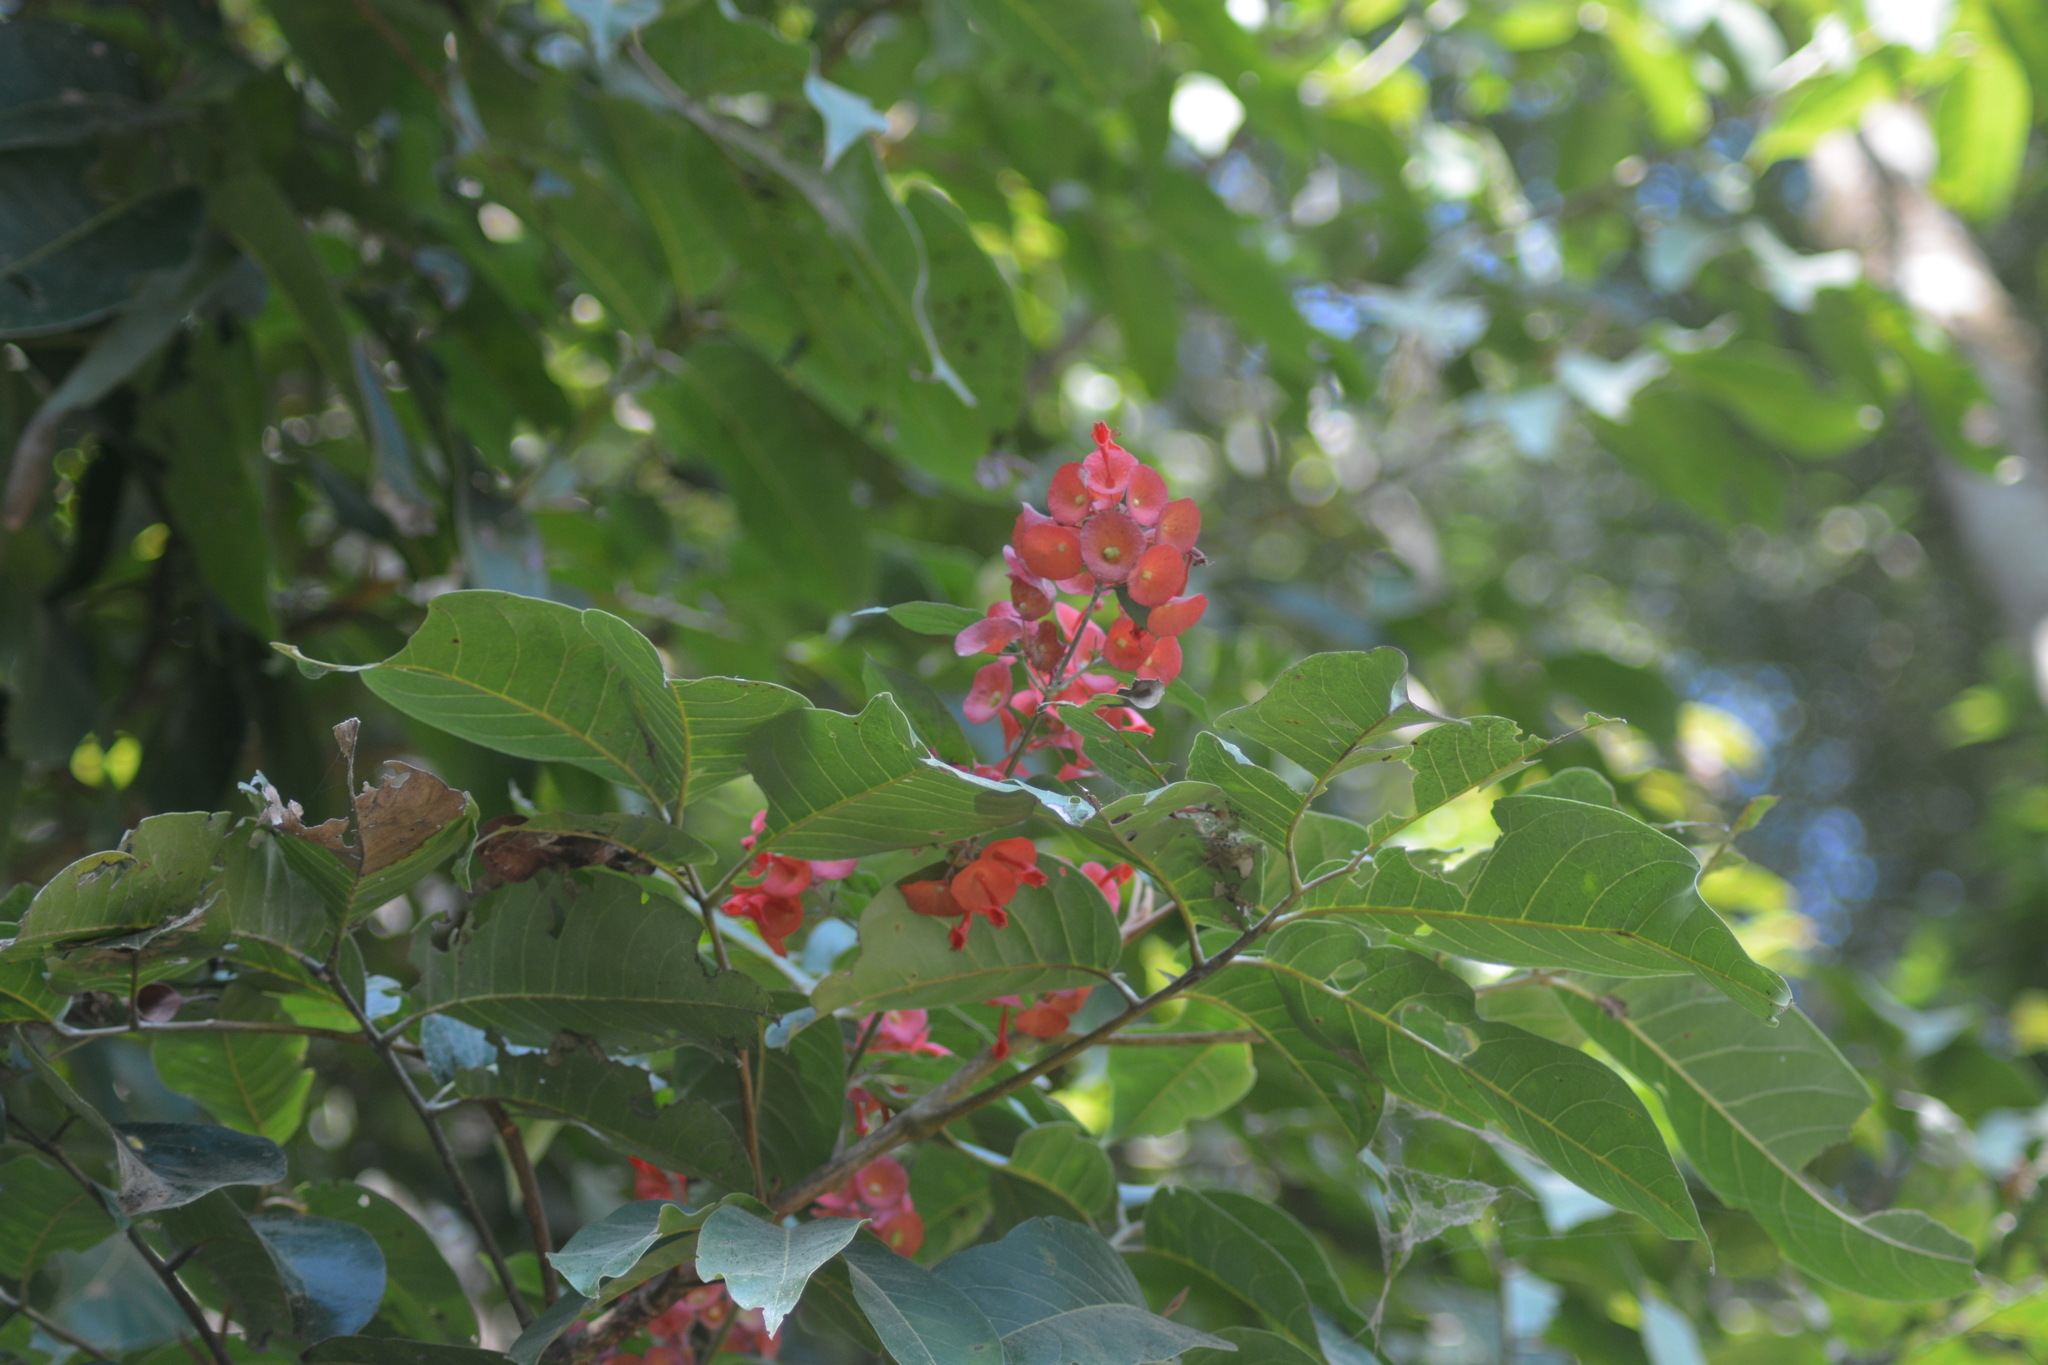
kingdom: Plantae
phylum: Tracheophyta
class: Magnoliopsida
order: Lamiales
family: Lamiaceae
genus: Holmskioldia
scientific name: Holmskioldia sanguinea
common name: Chinese hatplant
